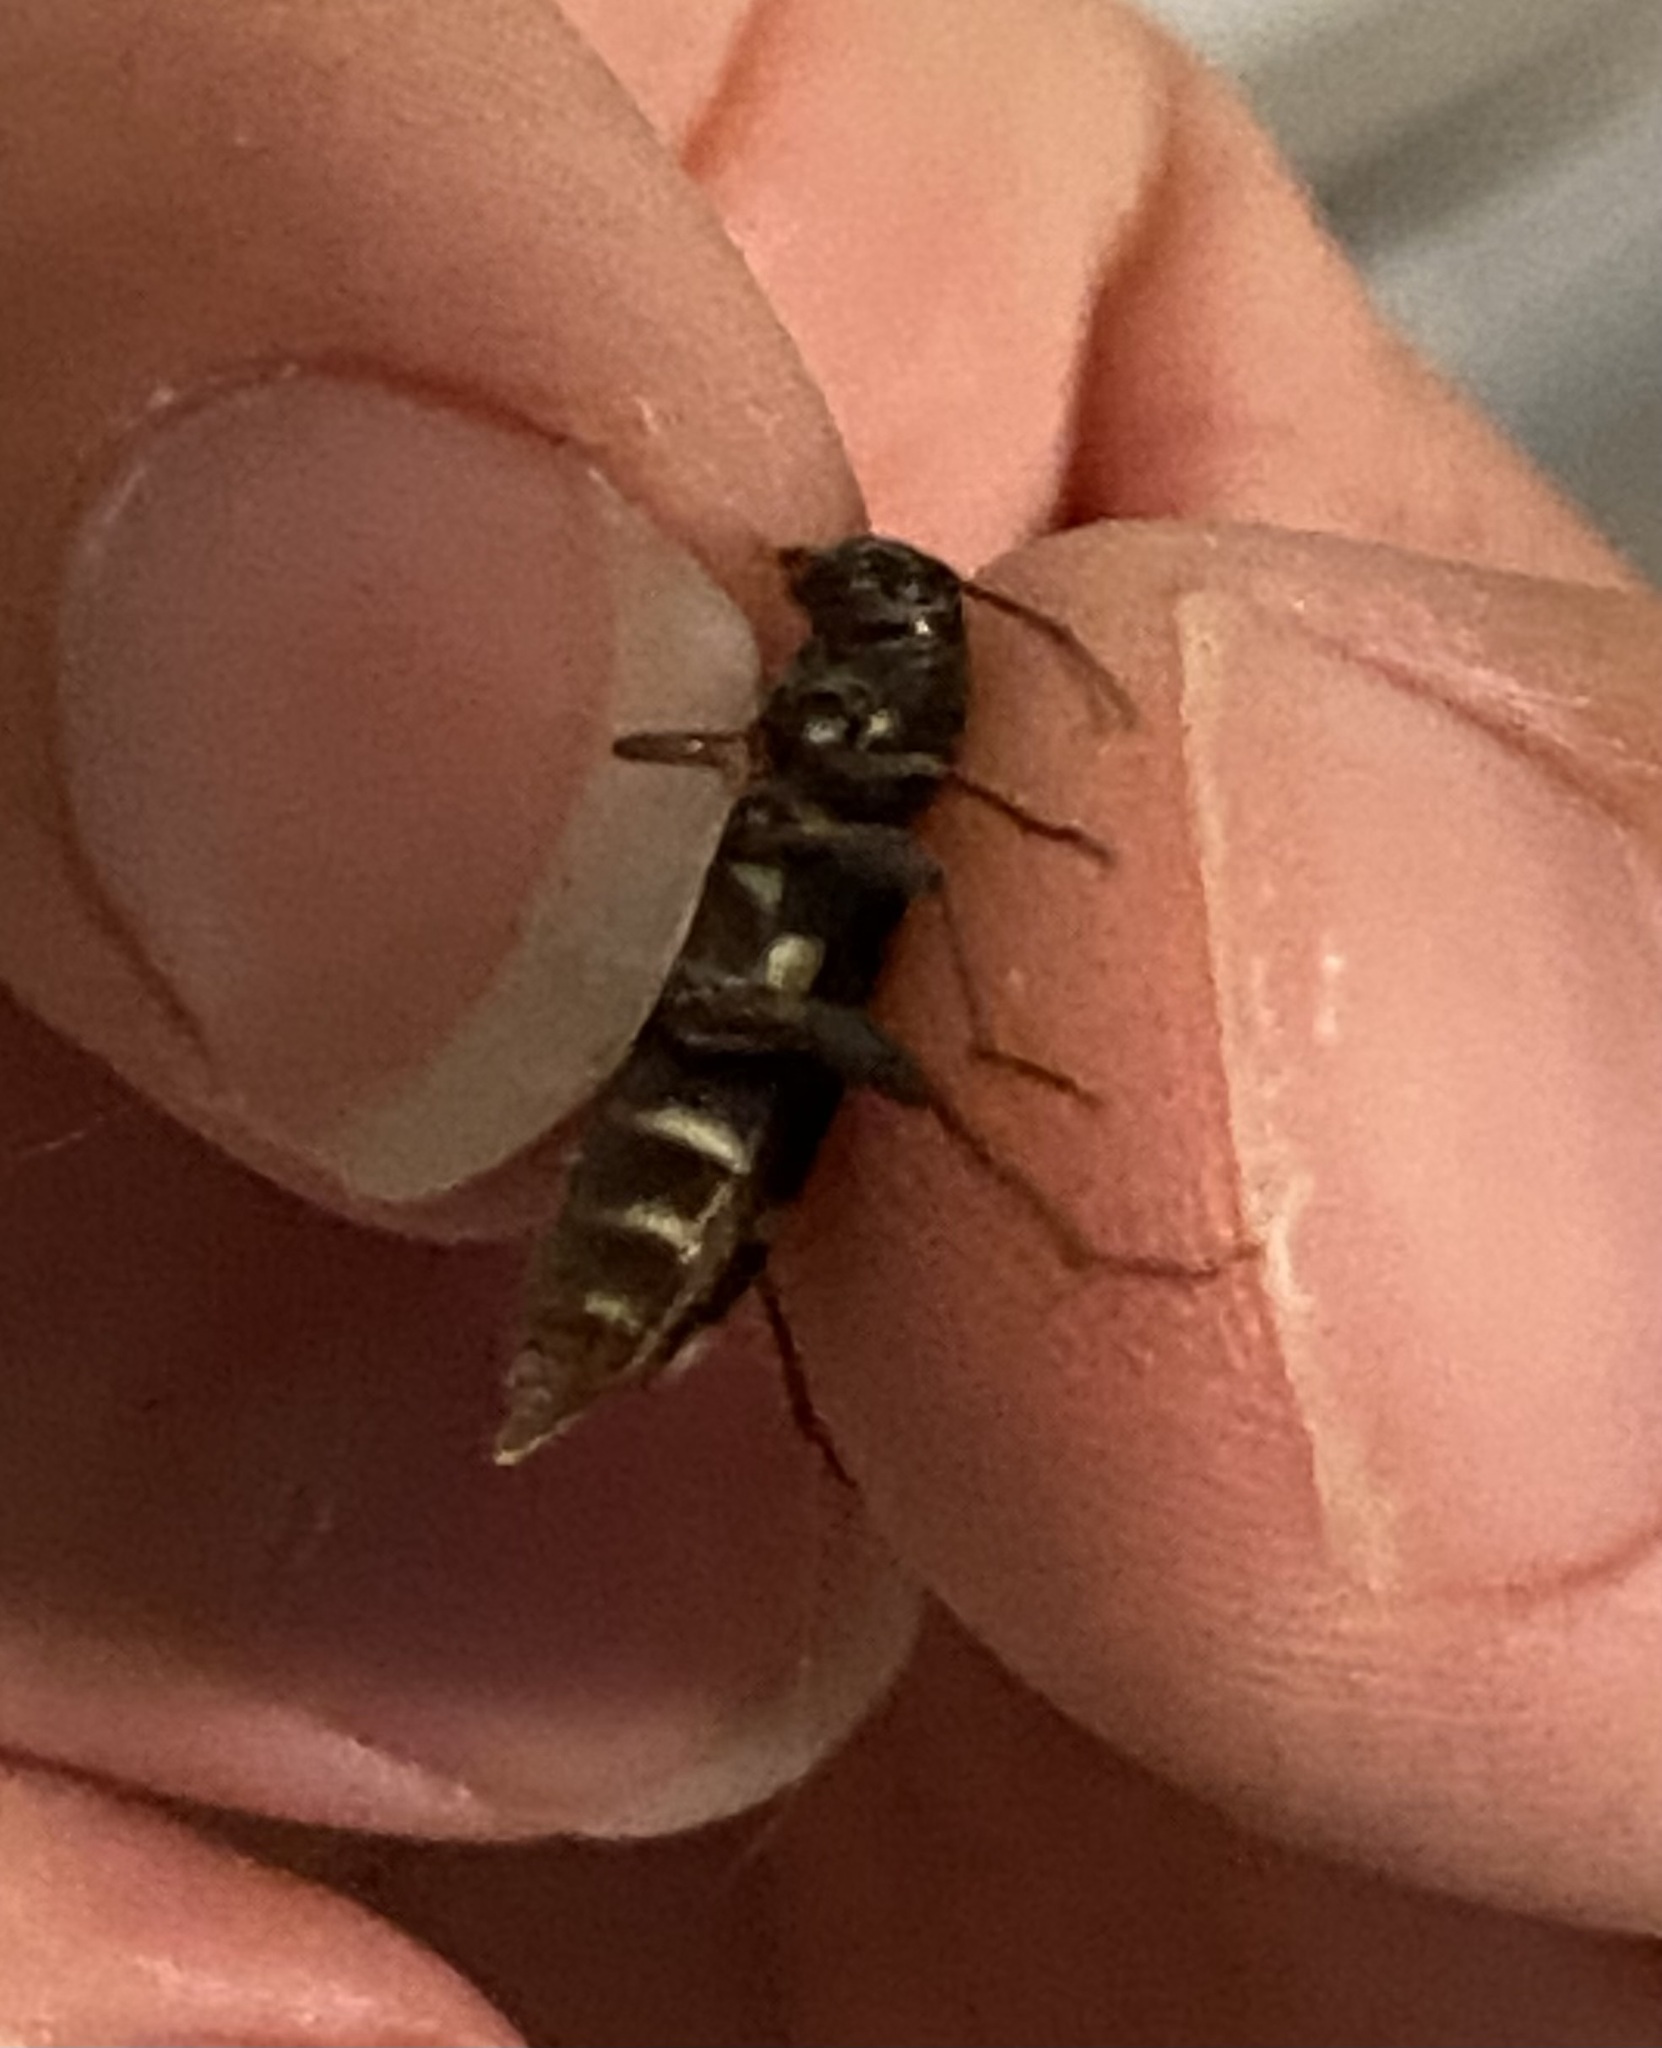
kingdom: Animalia
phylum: Arthropoda
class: Insecta
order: Coleoptera
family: Cerambycidae
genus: Xylotrechus
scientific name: Xylotrechus colonus
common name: Long-horned beetle
